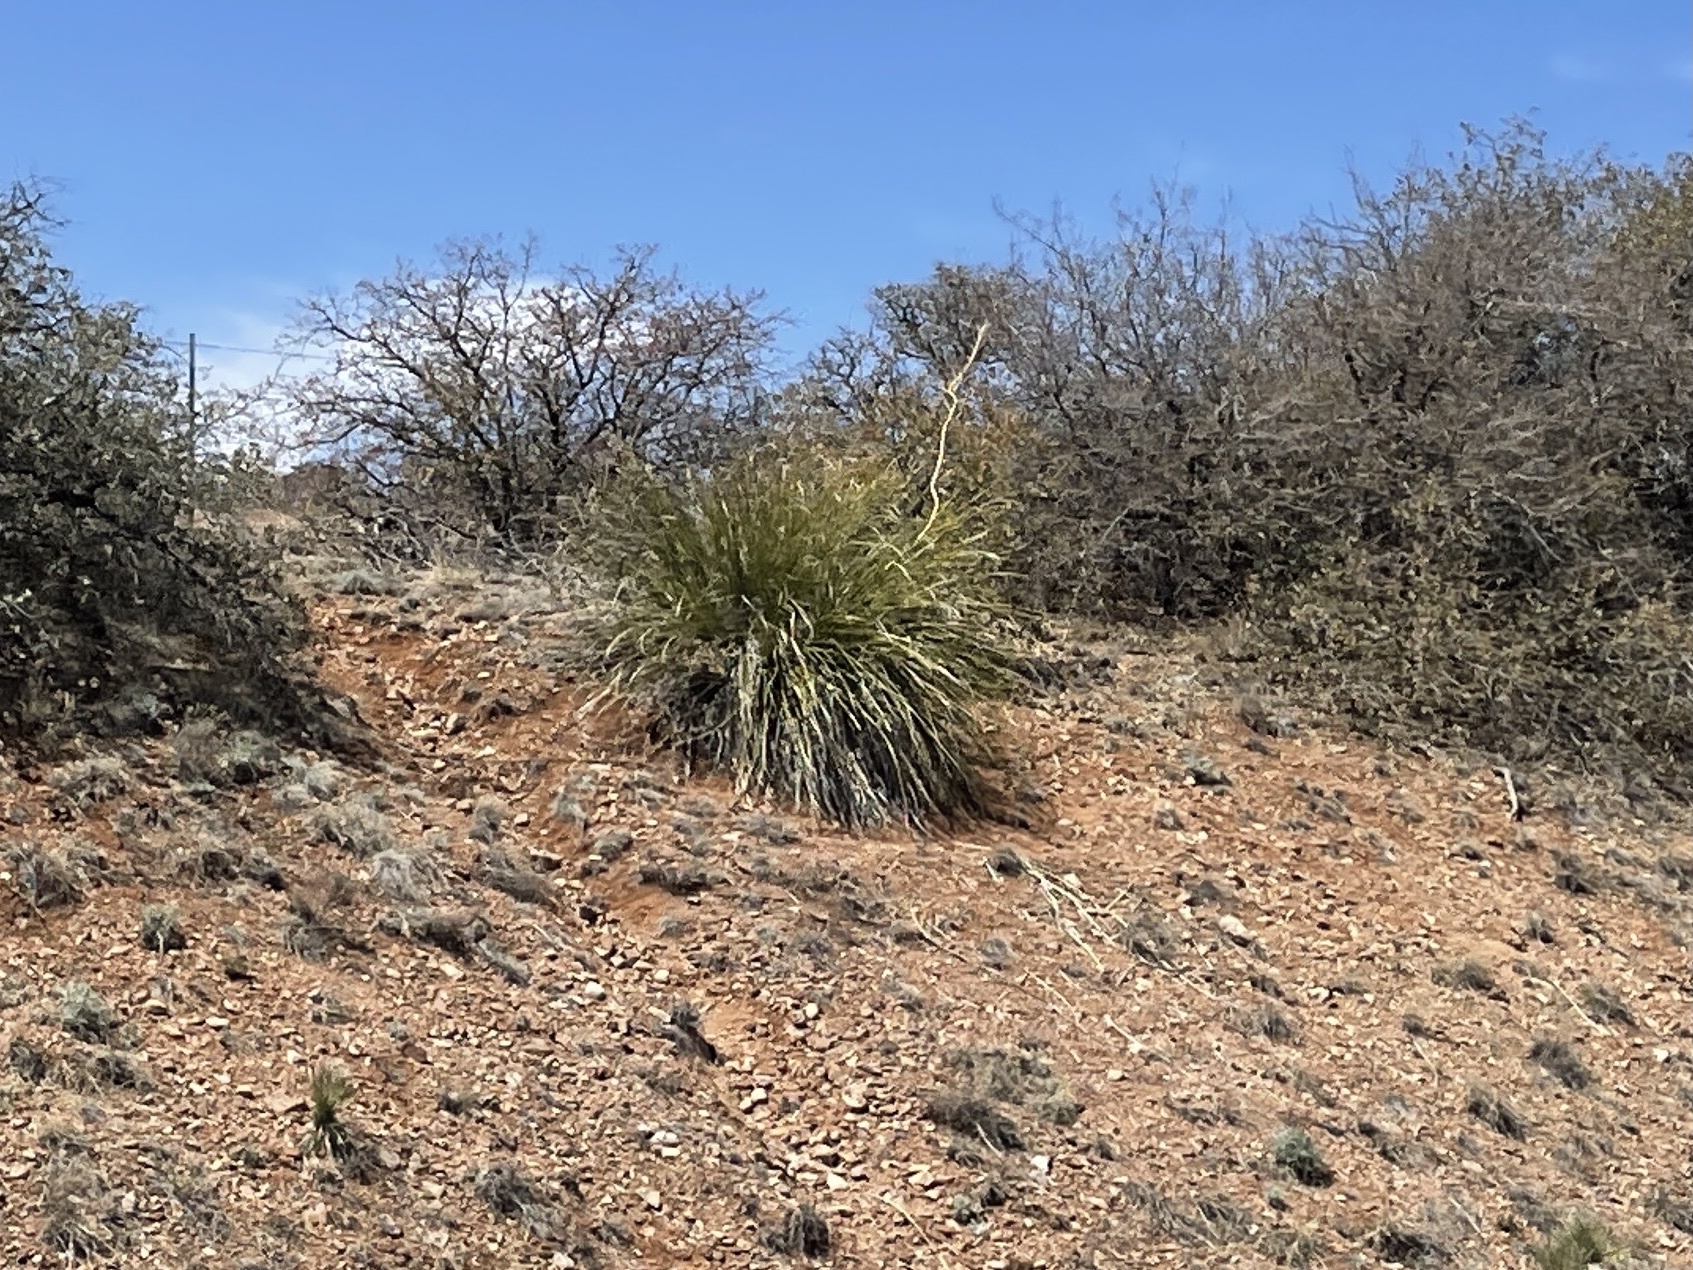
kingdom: Plantae
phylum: Tracheophyta
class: Liliopsida
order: Asparagales
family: Asparagaceae
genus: Nolina
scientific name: Nolina microcarpa
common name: Bear-grass
